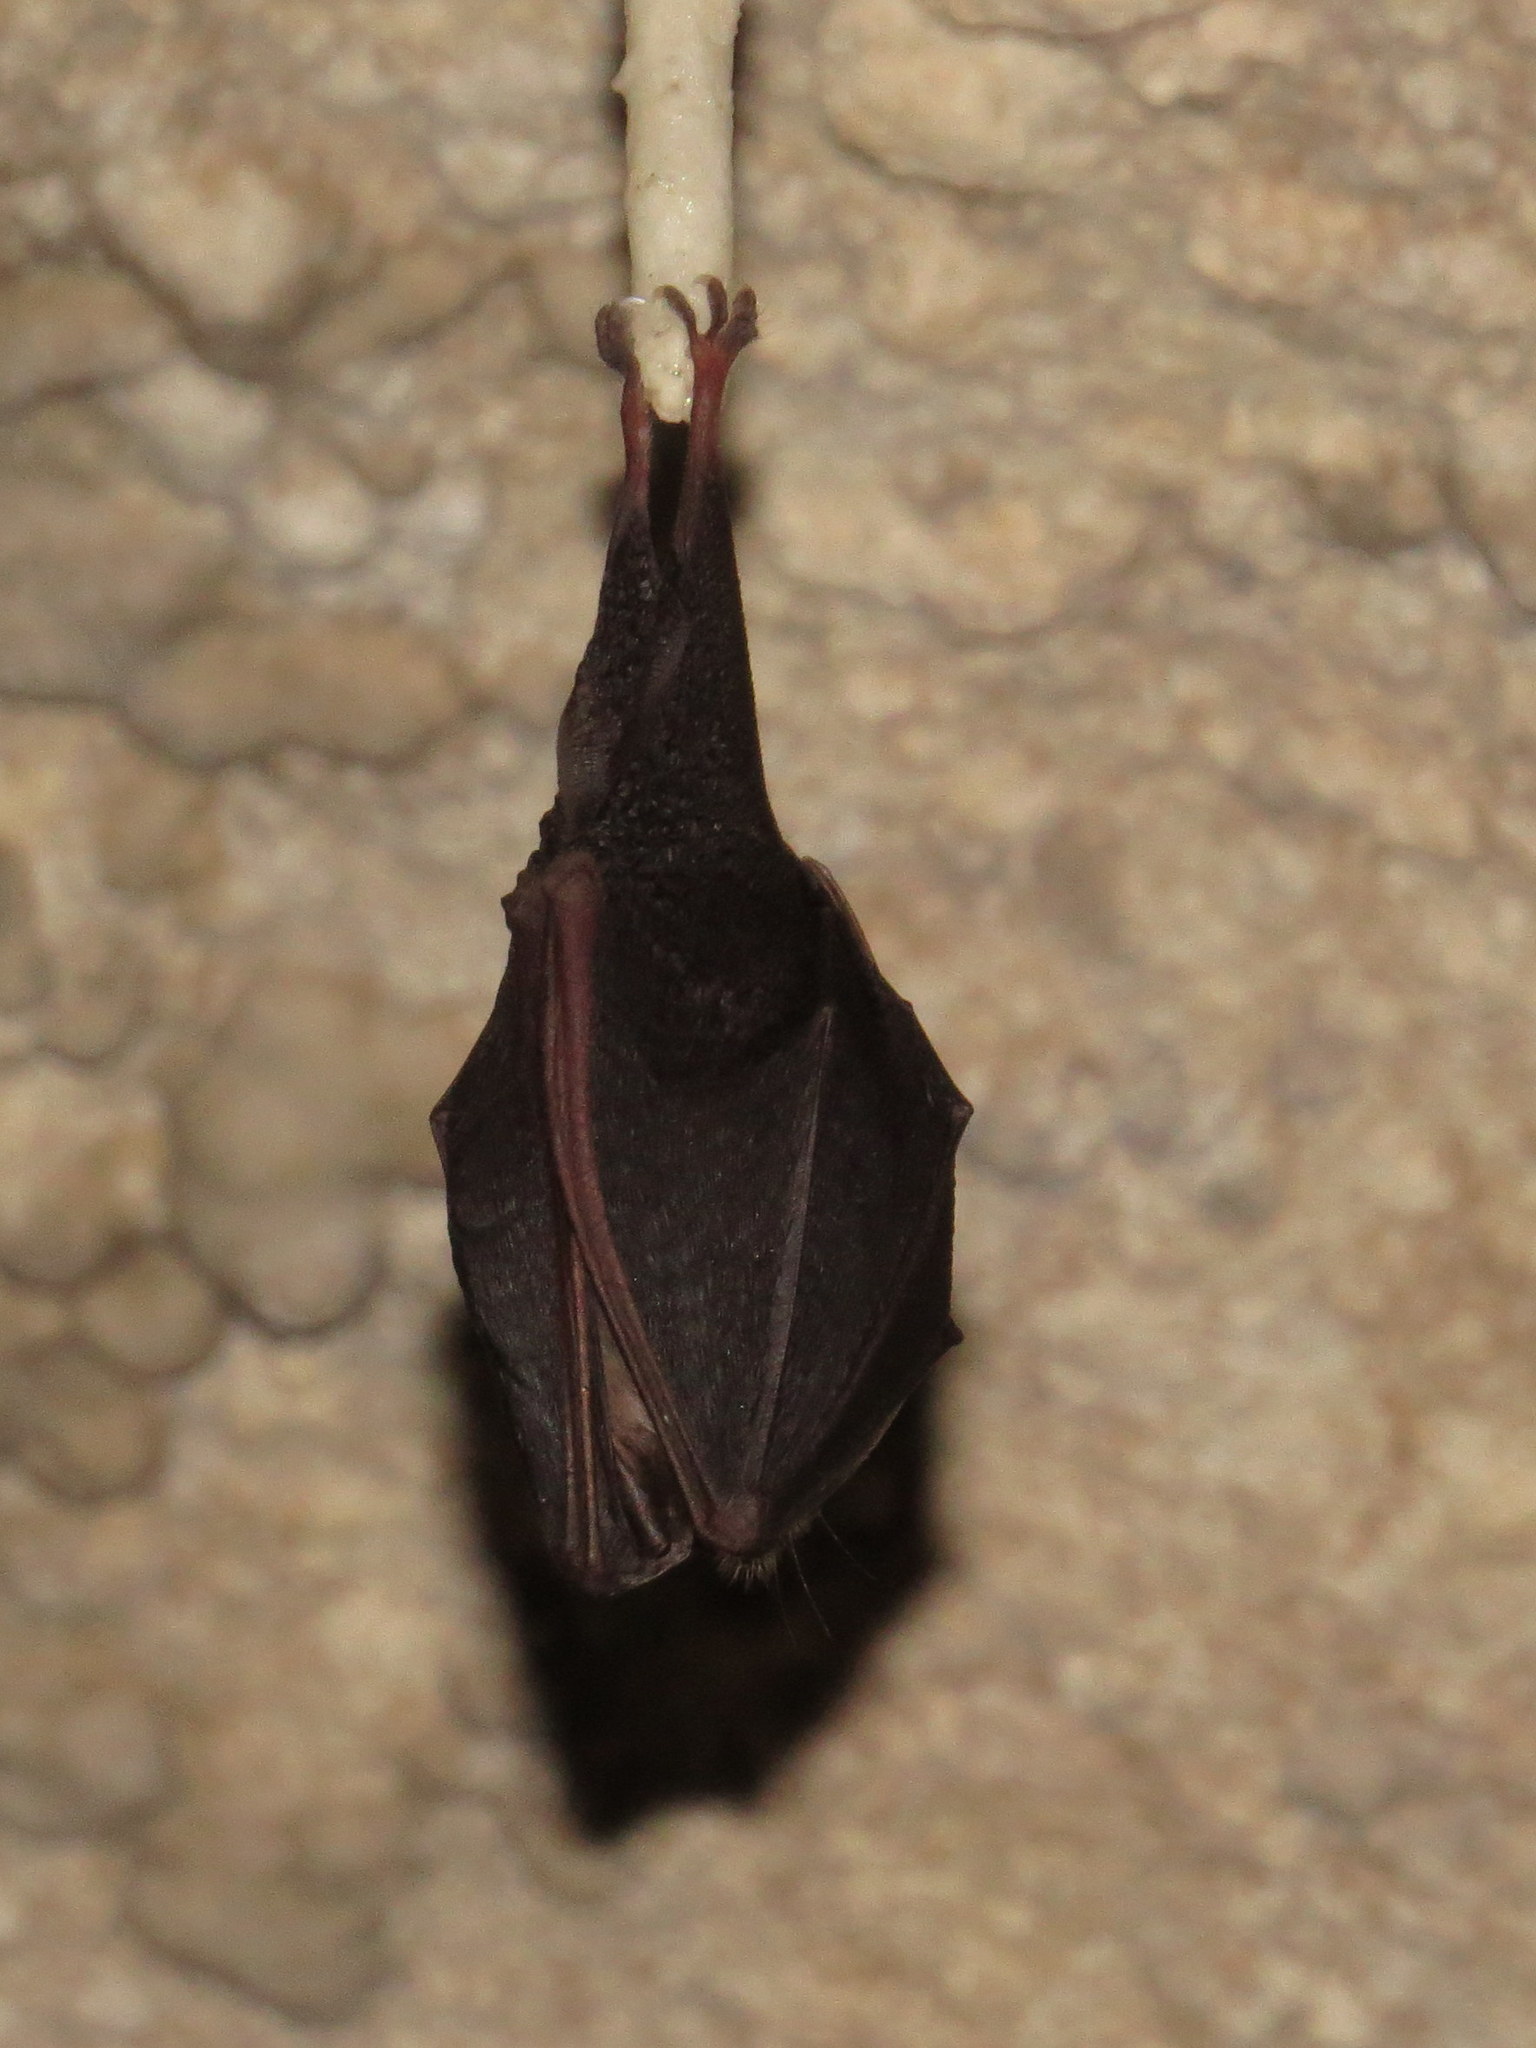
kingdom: Animalia
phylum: Chordata
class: Mammalia
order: Chiroptera
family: Rhinolophidae
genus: Rhinolophus
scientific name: Rhinolophus hipposideros
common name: Lesser horseshoe bat
